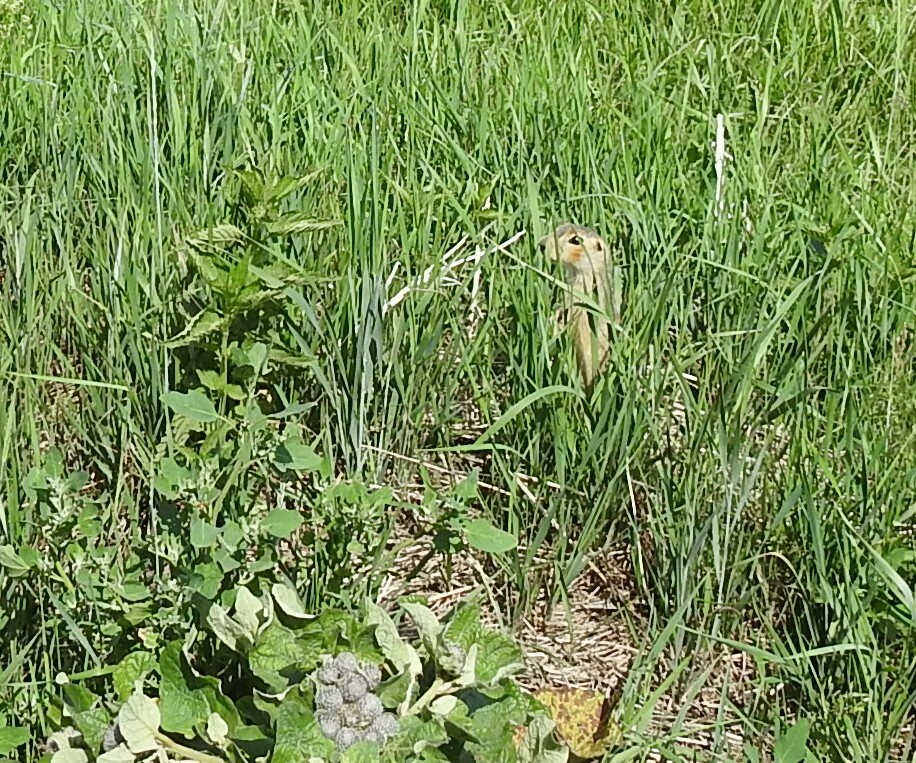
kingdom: Animalia
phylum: Chordata
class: Mammalia
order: Rodentia
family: Sciuridae
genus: Spermophilus
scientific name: Spermophilus major
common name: Russet ground squirrel
